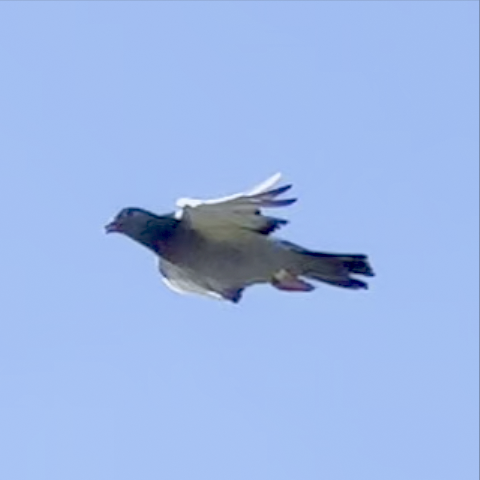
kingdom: Animalia
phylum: Chordata
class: Aves
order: Columbiformes
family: Columbidae
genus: Columba
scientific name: Columba livia
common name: Rock pigeon
